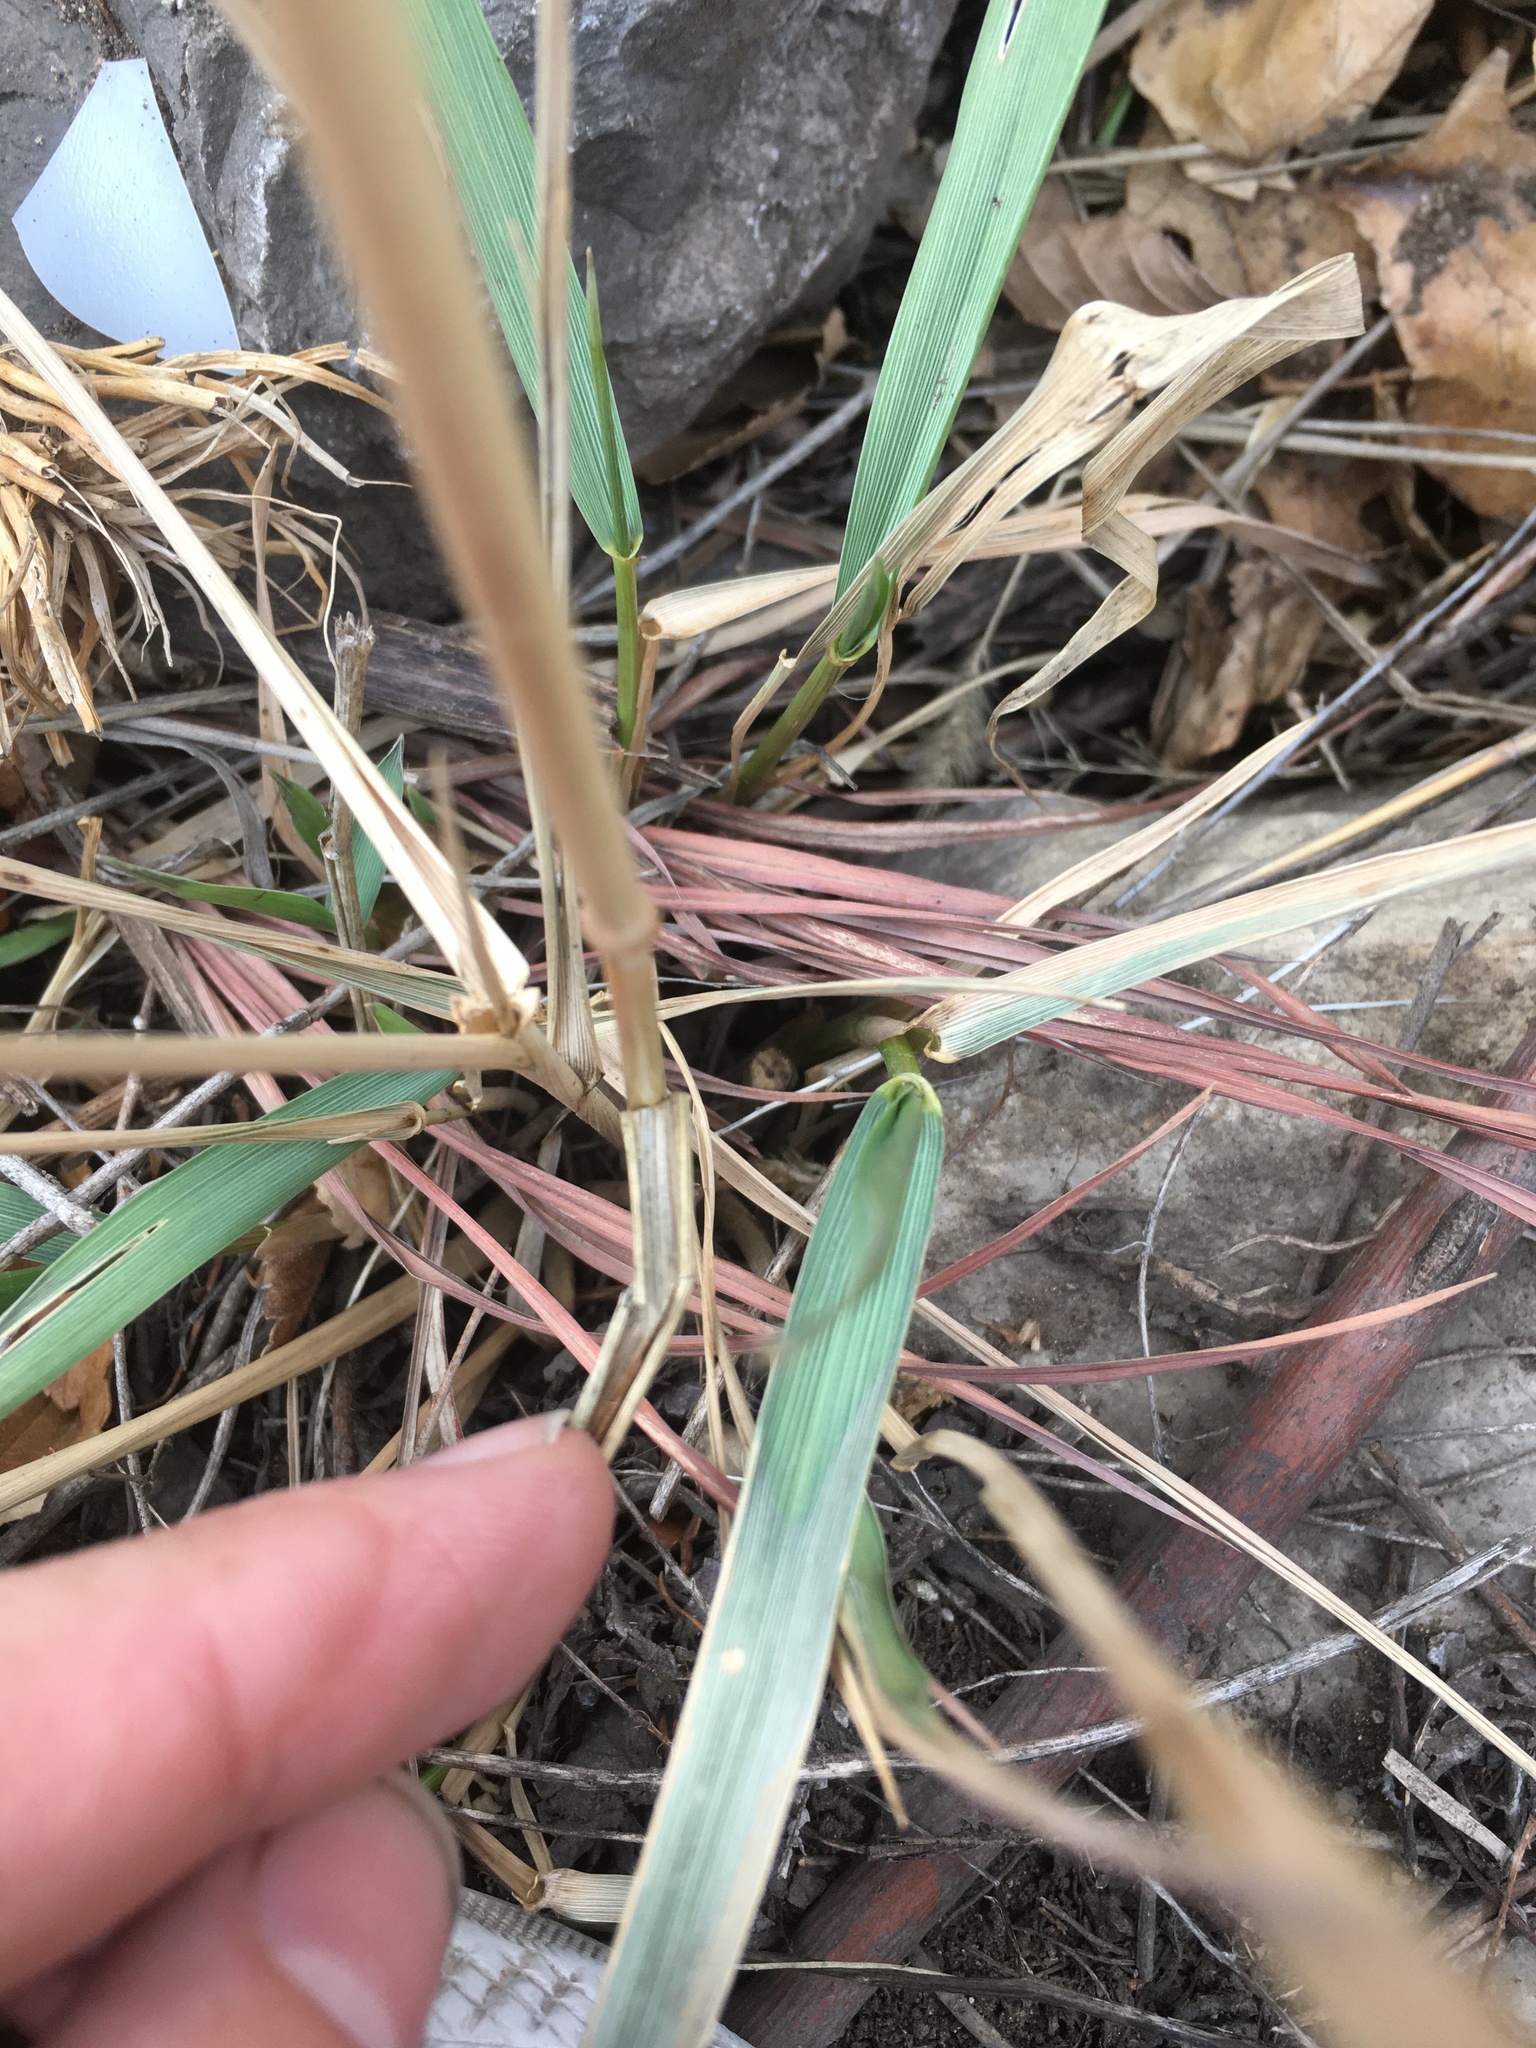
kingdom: Plantae
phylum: Tracheophyta
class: Liliopsida
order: Poales
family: Poaceae
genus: Elymus
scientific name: Elymus canadensis
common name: Canada wild rye
